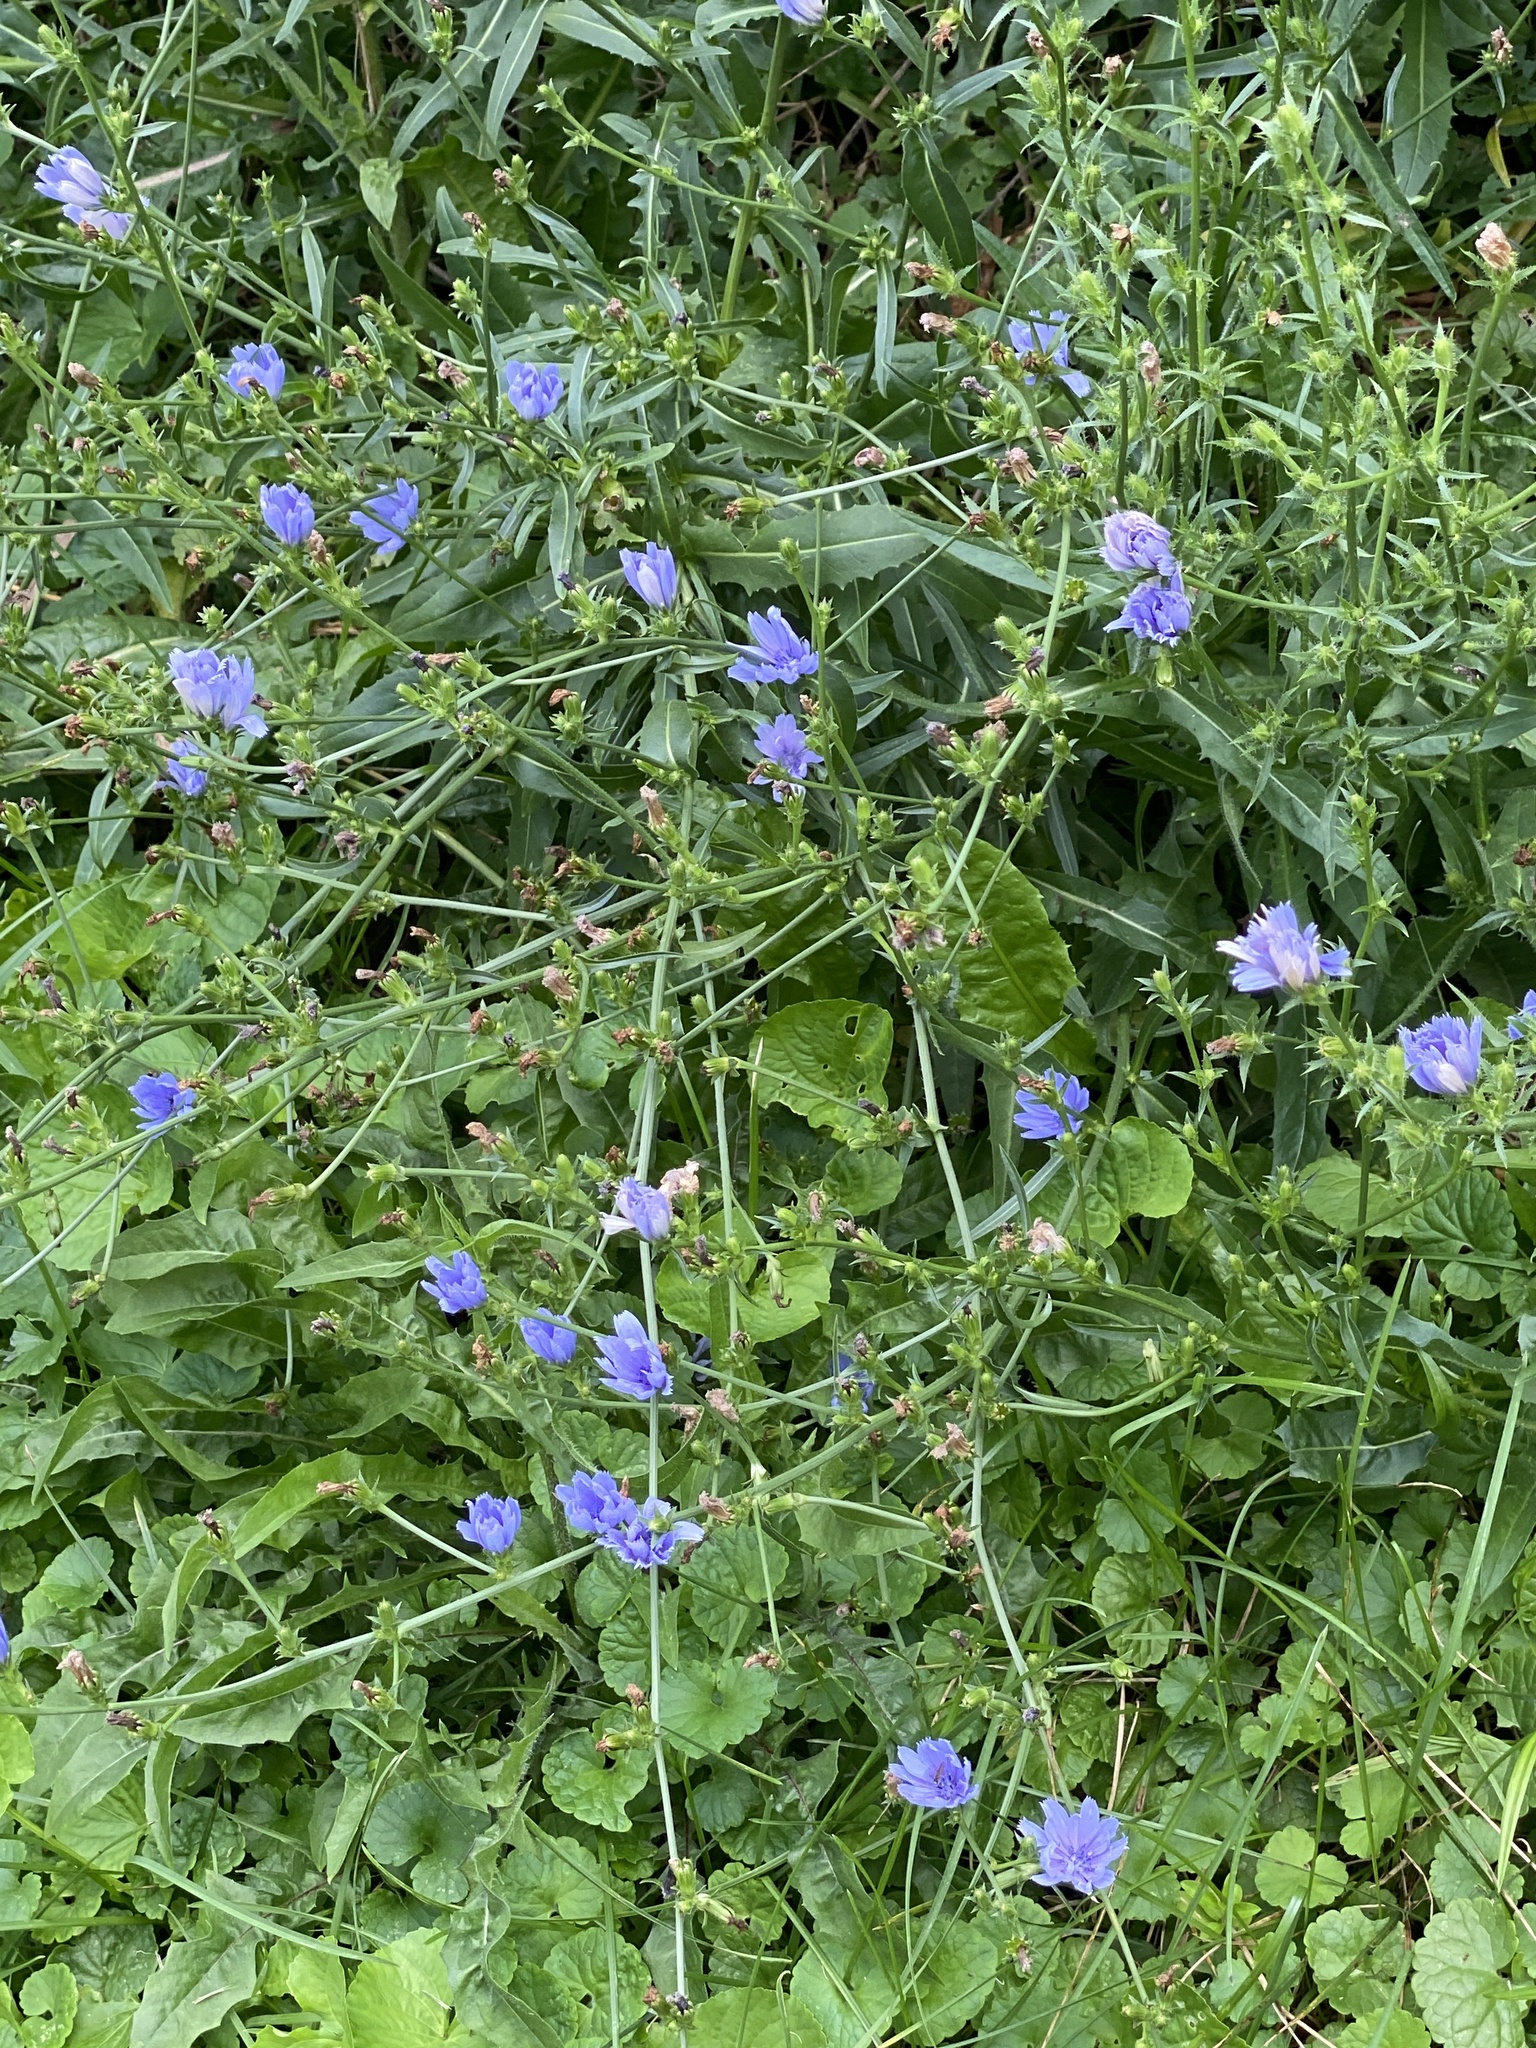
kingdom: Plantae
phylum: Tracheophyta
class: Magnoliopsida
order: Asterales
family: Asteraceae
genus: Cichorium
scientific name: Cichorium intybus
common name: Chicory
